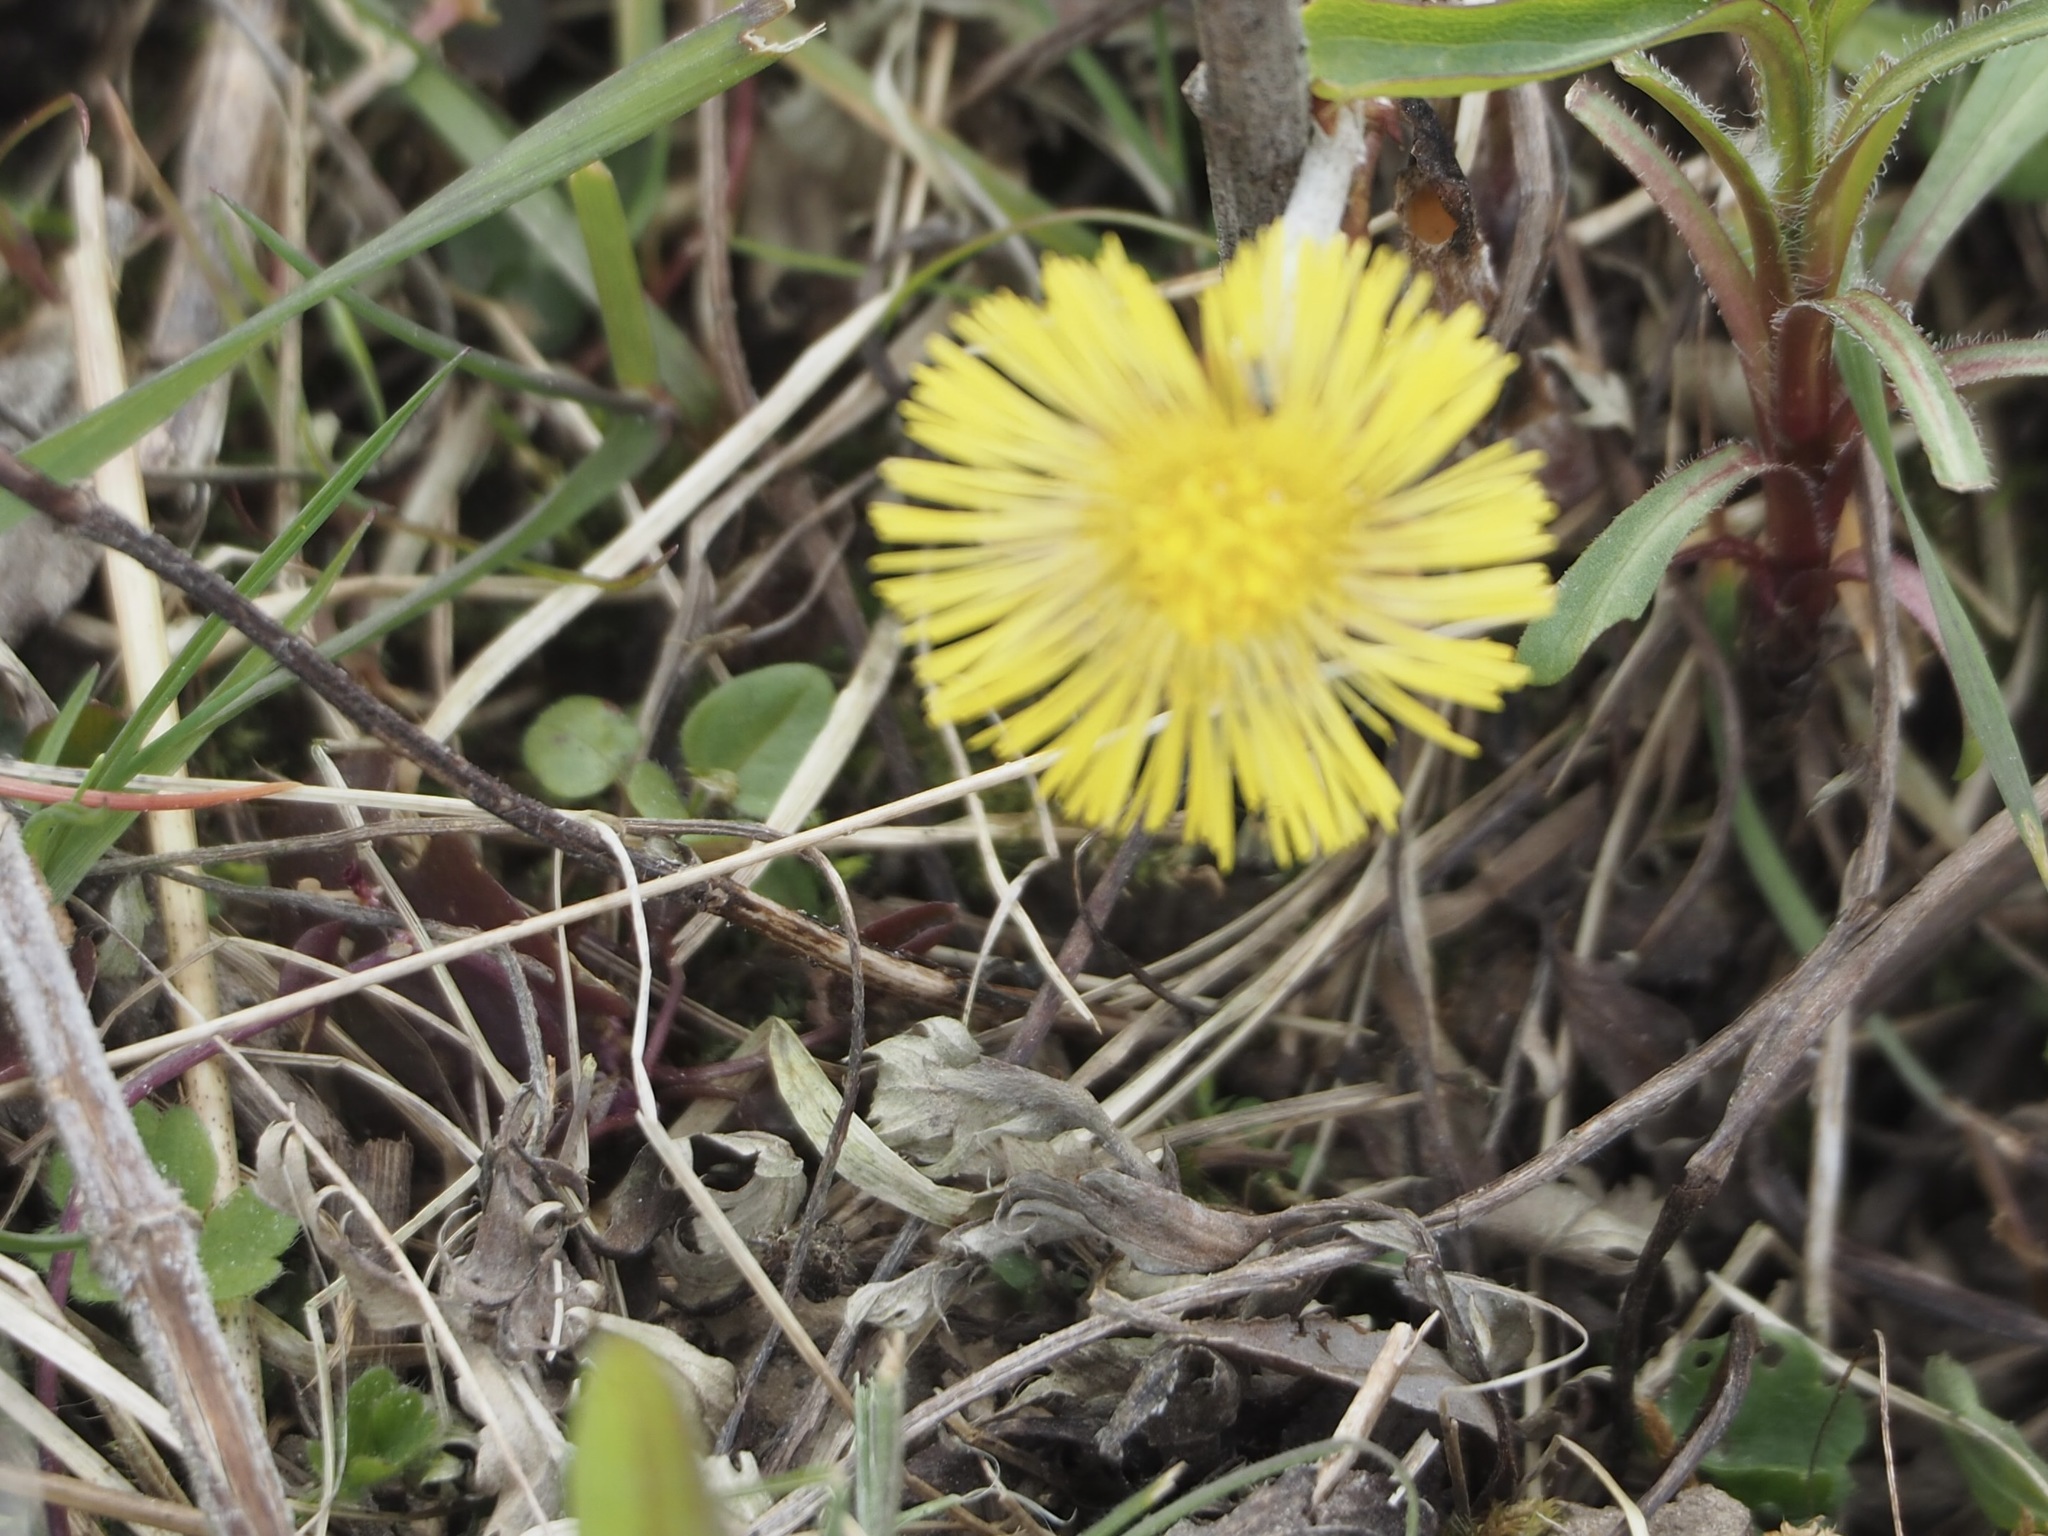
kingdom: Plantae
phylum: Tracheophyta
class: Magnoliopsida
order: Asterales
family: Asteraceae
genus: Tussilago
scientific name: Tussilago farfara
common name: Coltsfoot
